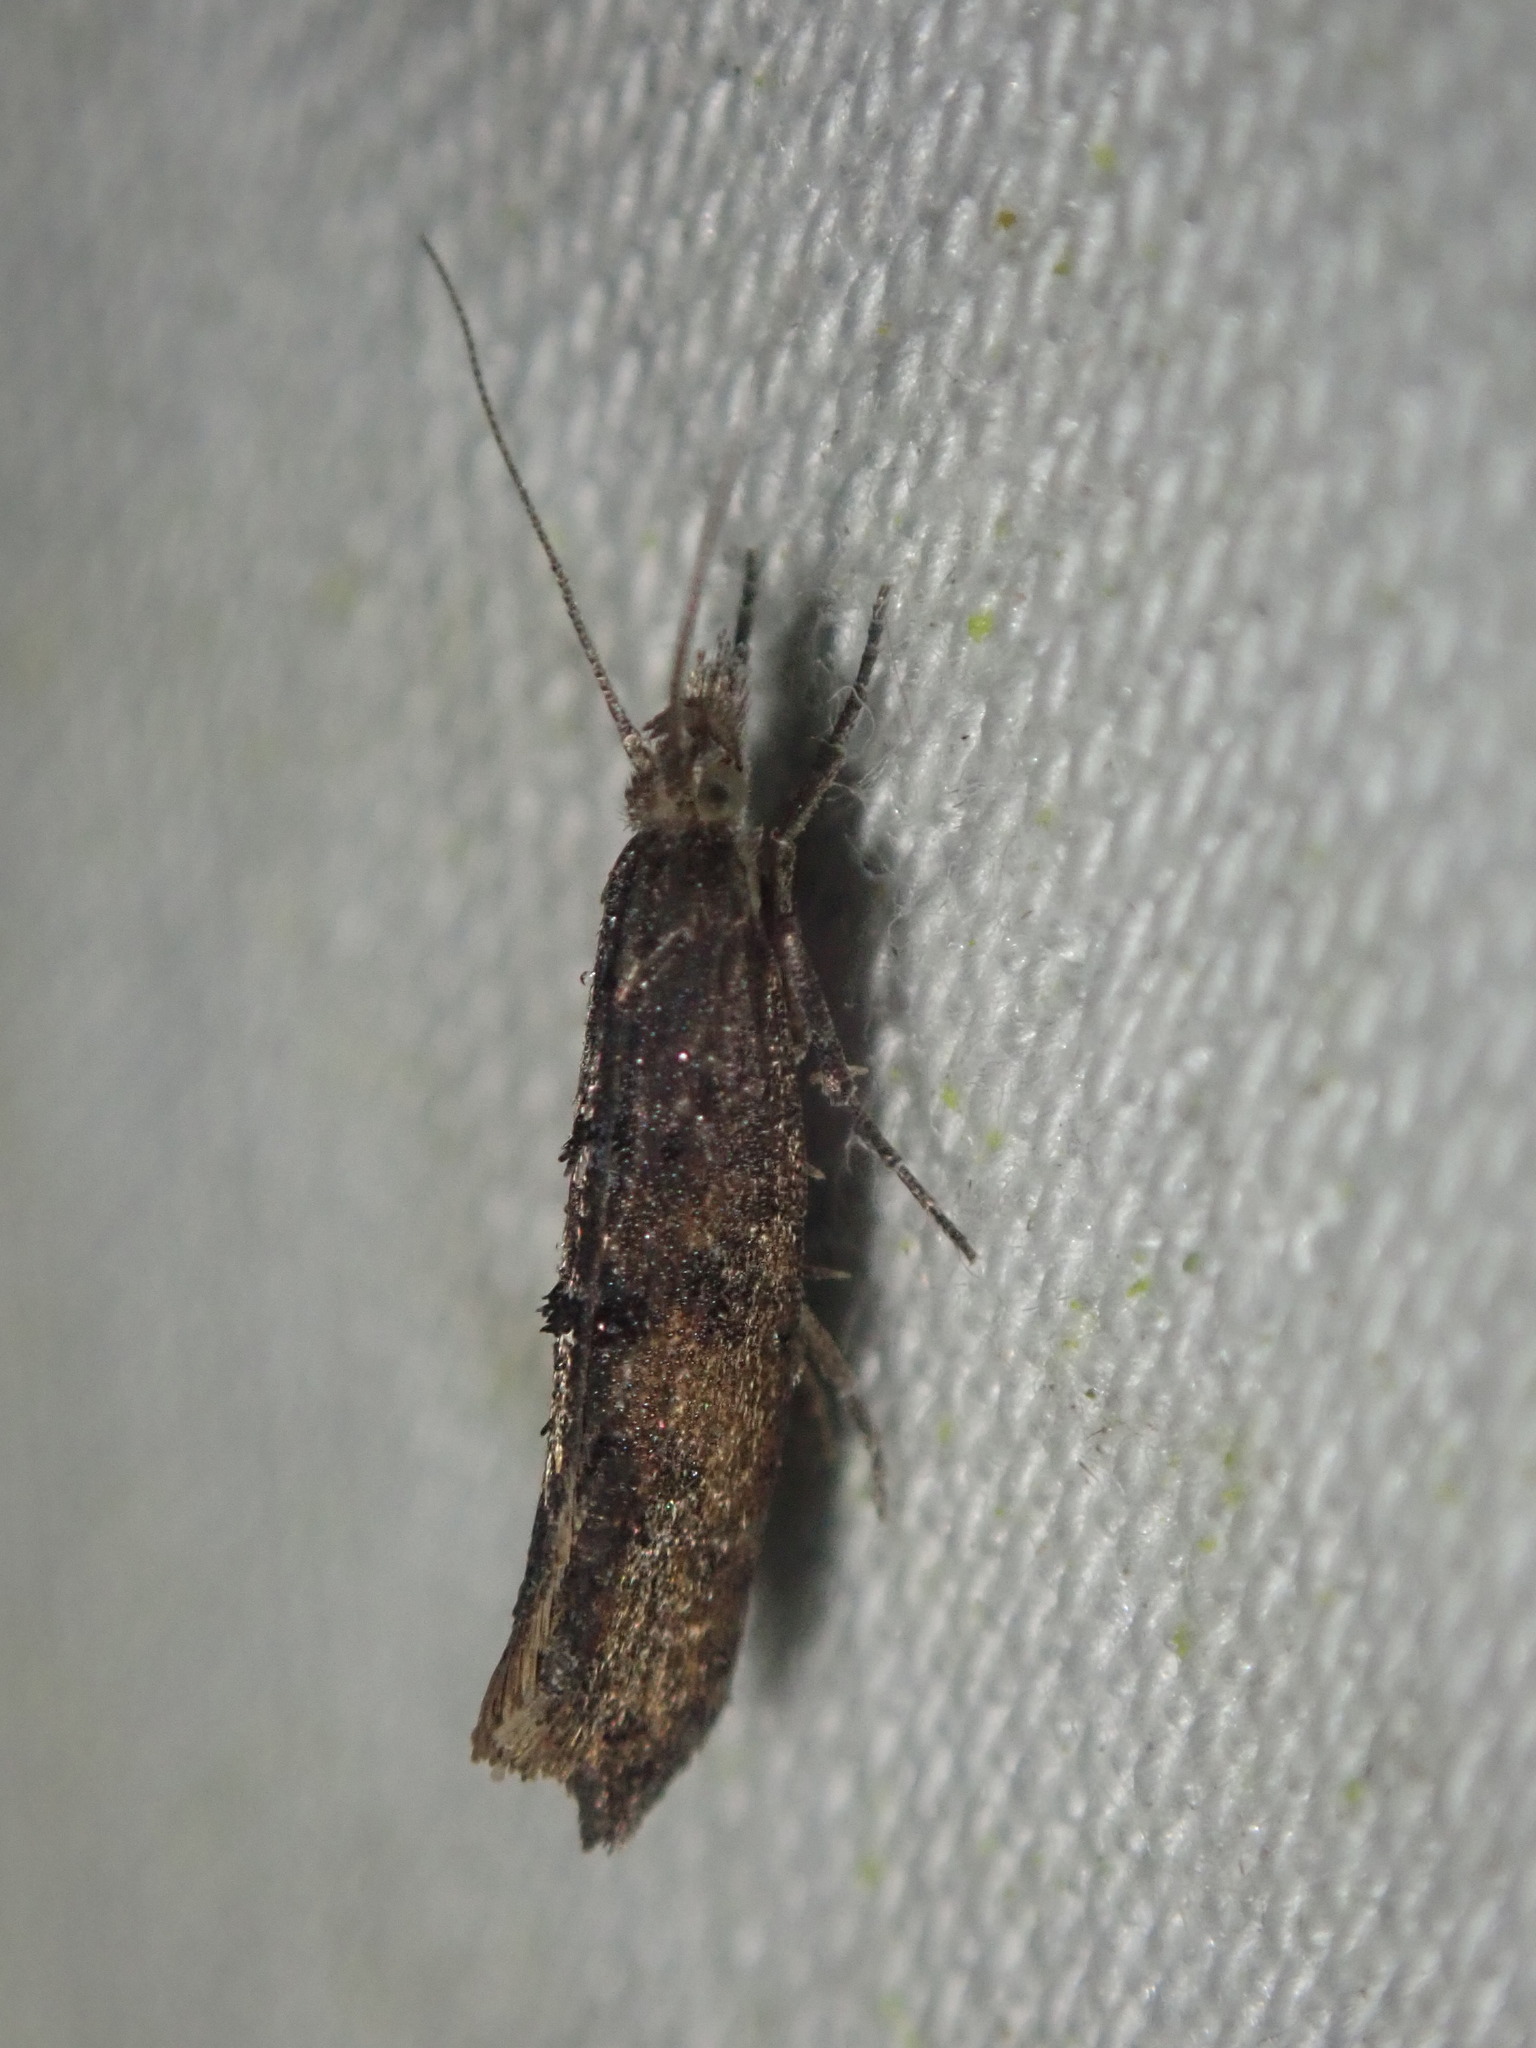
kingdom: Animalia
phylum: Arthropoda
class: Insecta
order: Lepidoptera
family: Ypsolophidae
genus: Ypsolopha
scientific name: Ypsolopha horridella
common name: Dark smudge
